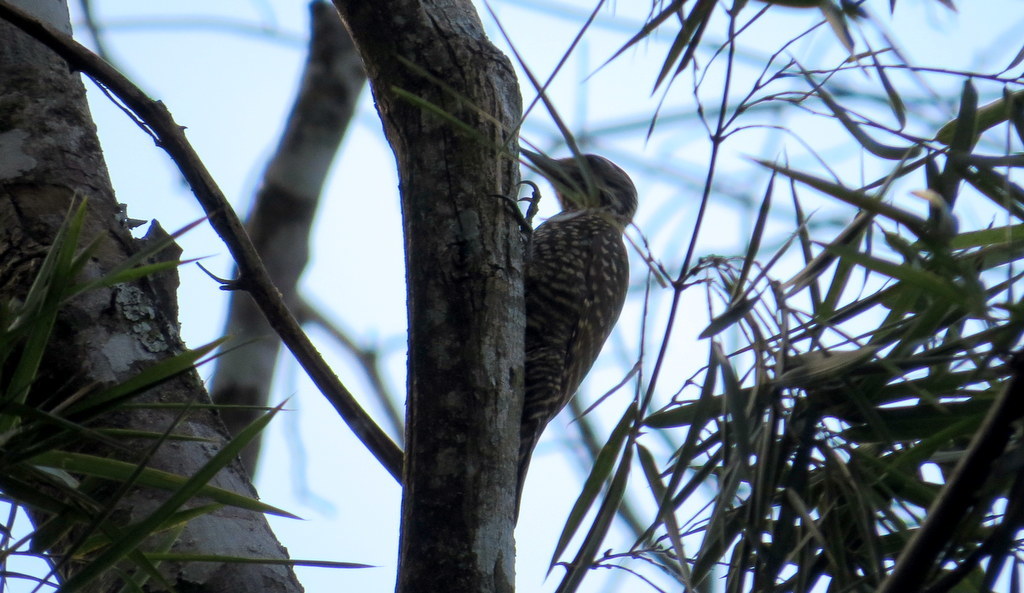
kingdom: Animalia
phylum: Chordata
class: Aves
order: Piciformes
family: Picidae
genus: Veniliornis
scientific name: Veniliornis spilogaster
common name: White-spotted woodpecker
